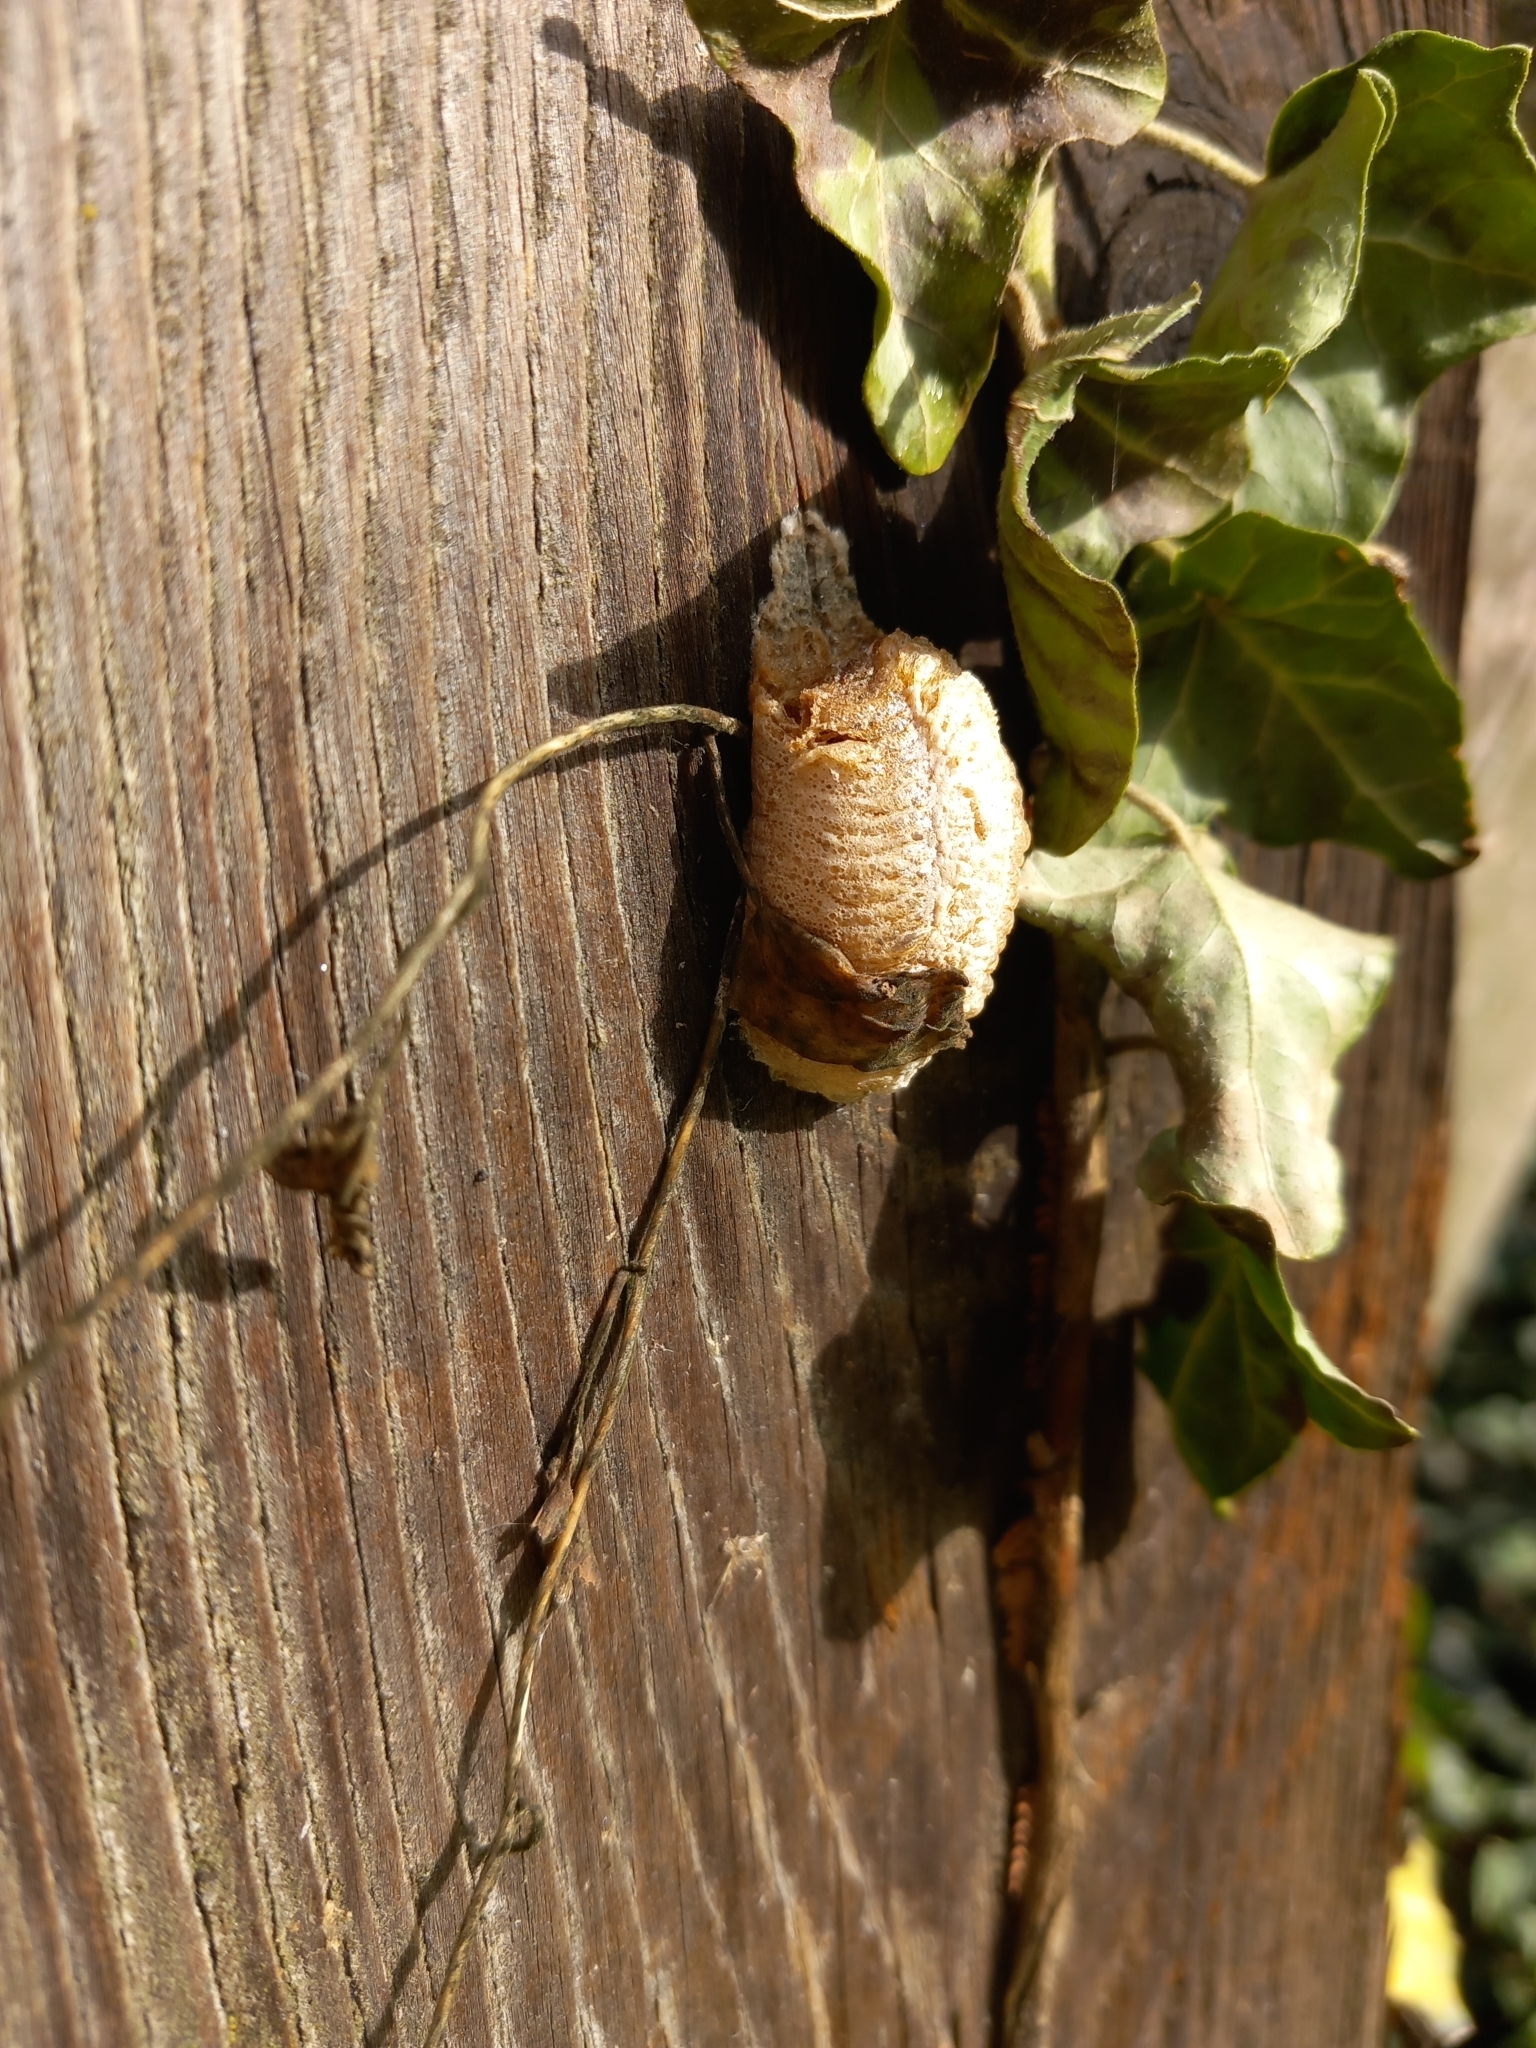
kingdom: Animalia
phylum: Arthropoda
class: Insecta
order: Mantodea
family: Mantidae
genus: Mantis
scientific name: Mantis religiosa
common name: Praying mantis
